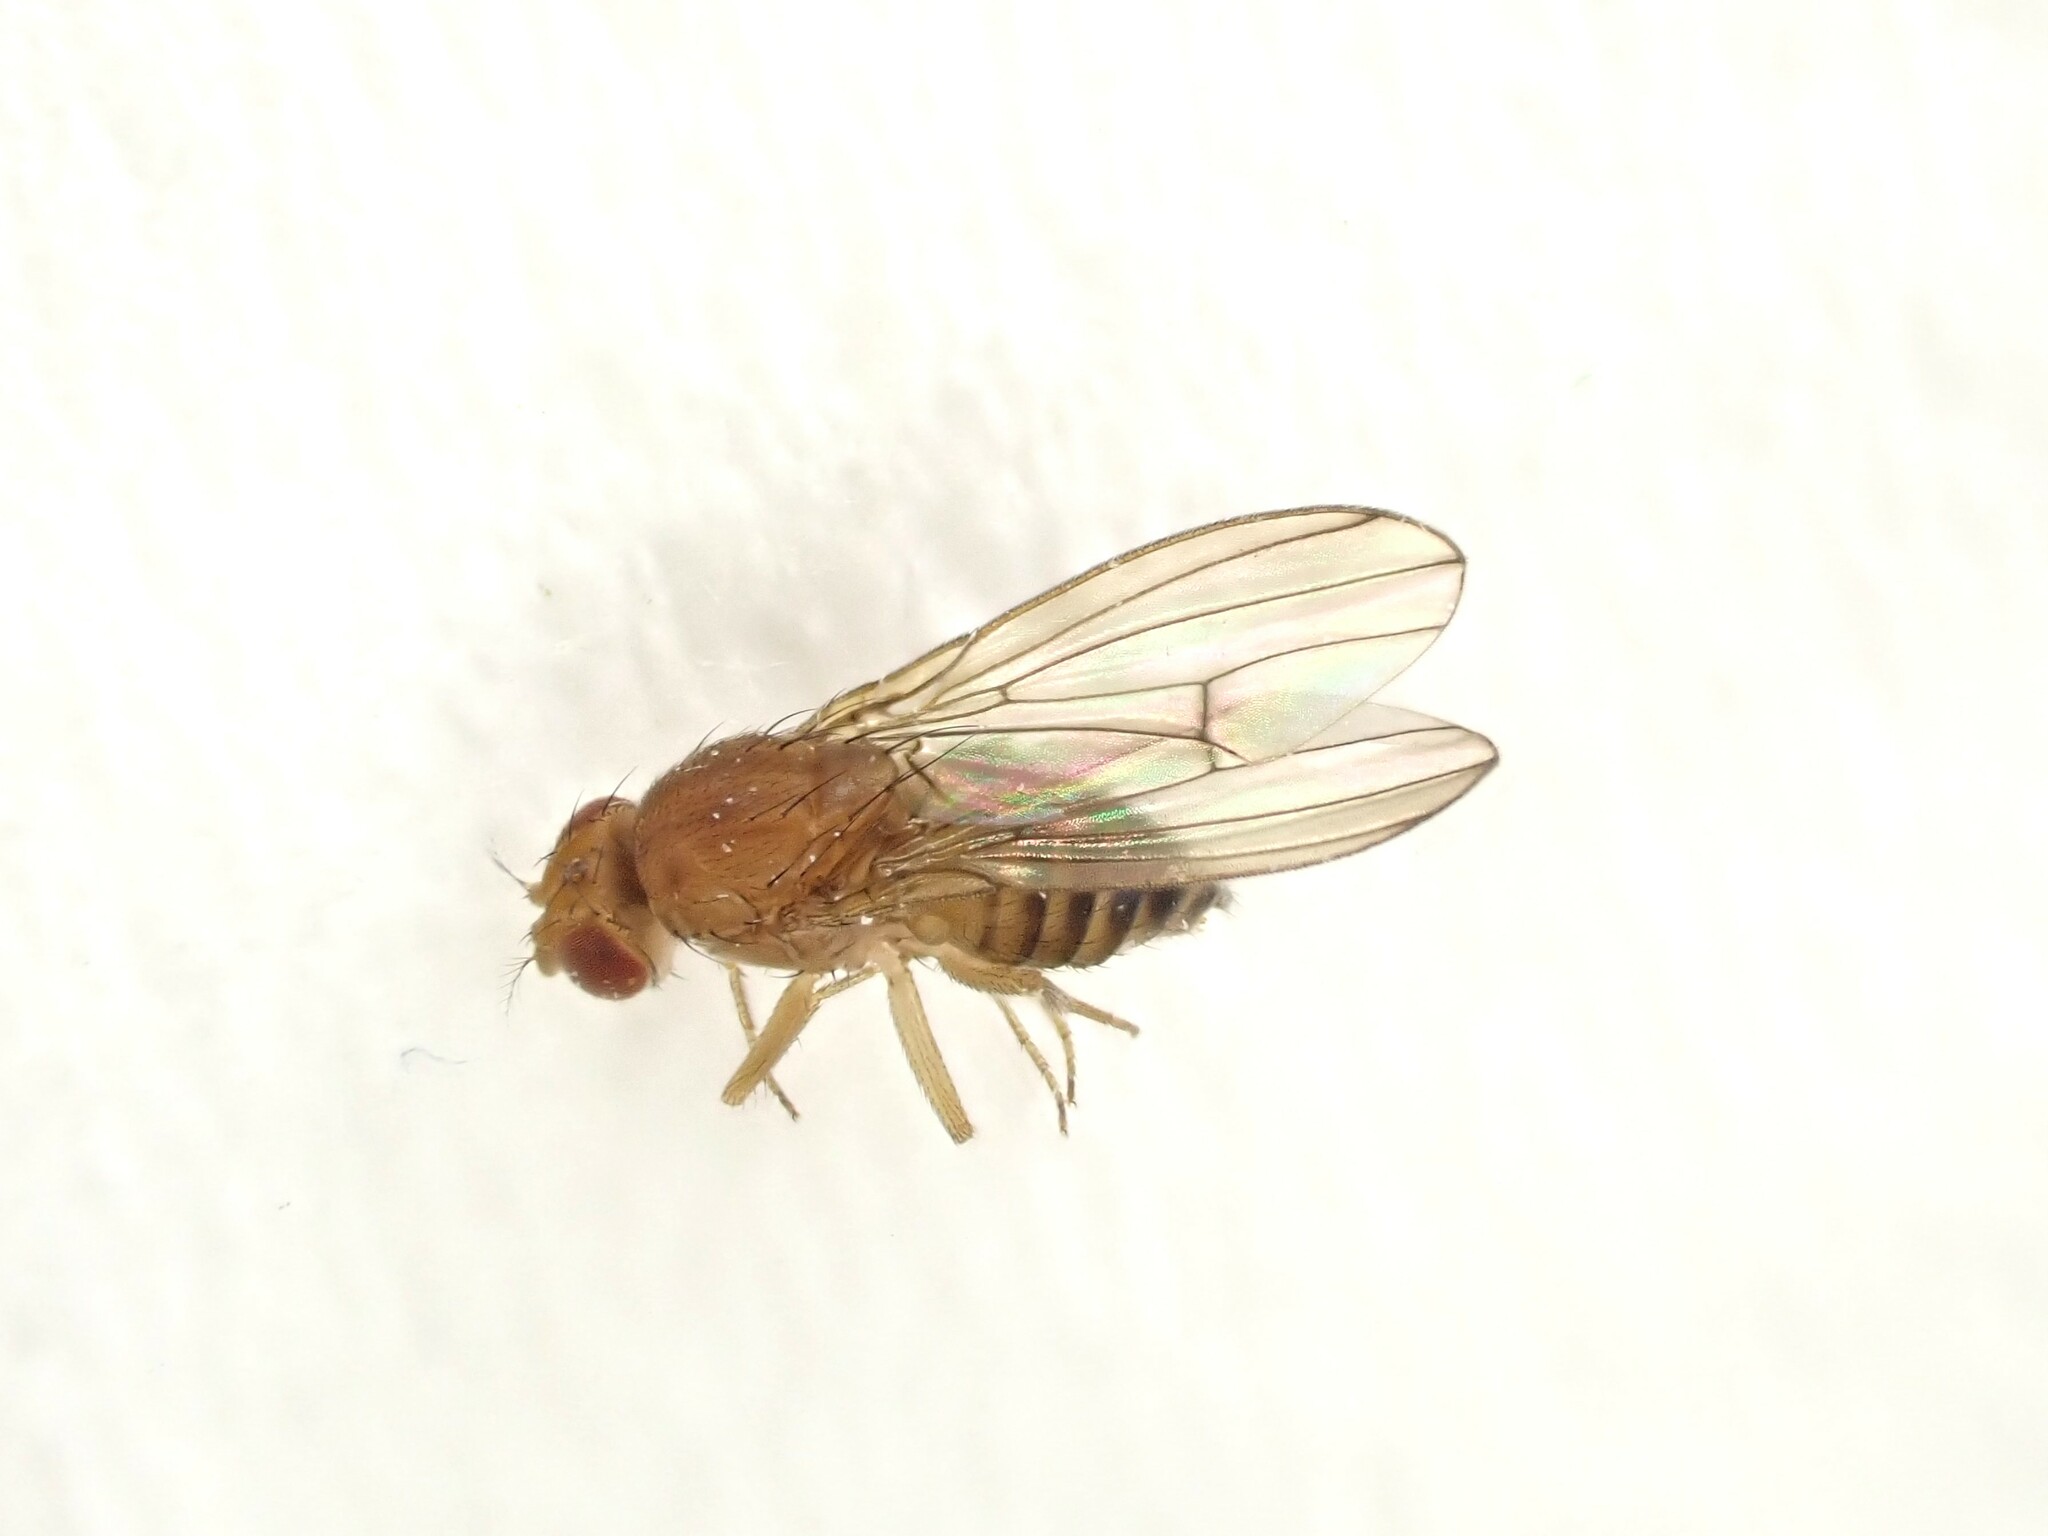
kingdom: Animalia
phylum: Arthropoda
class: Insecta
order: Diptera
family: Drosophilidae
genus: Drosophila
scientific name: Drosophila immigrans
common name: Pomace fly
